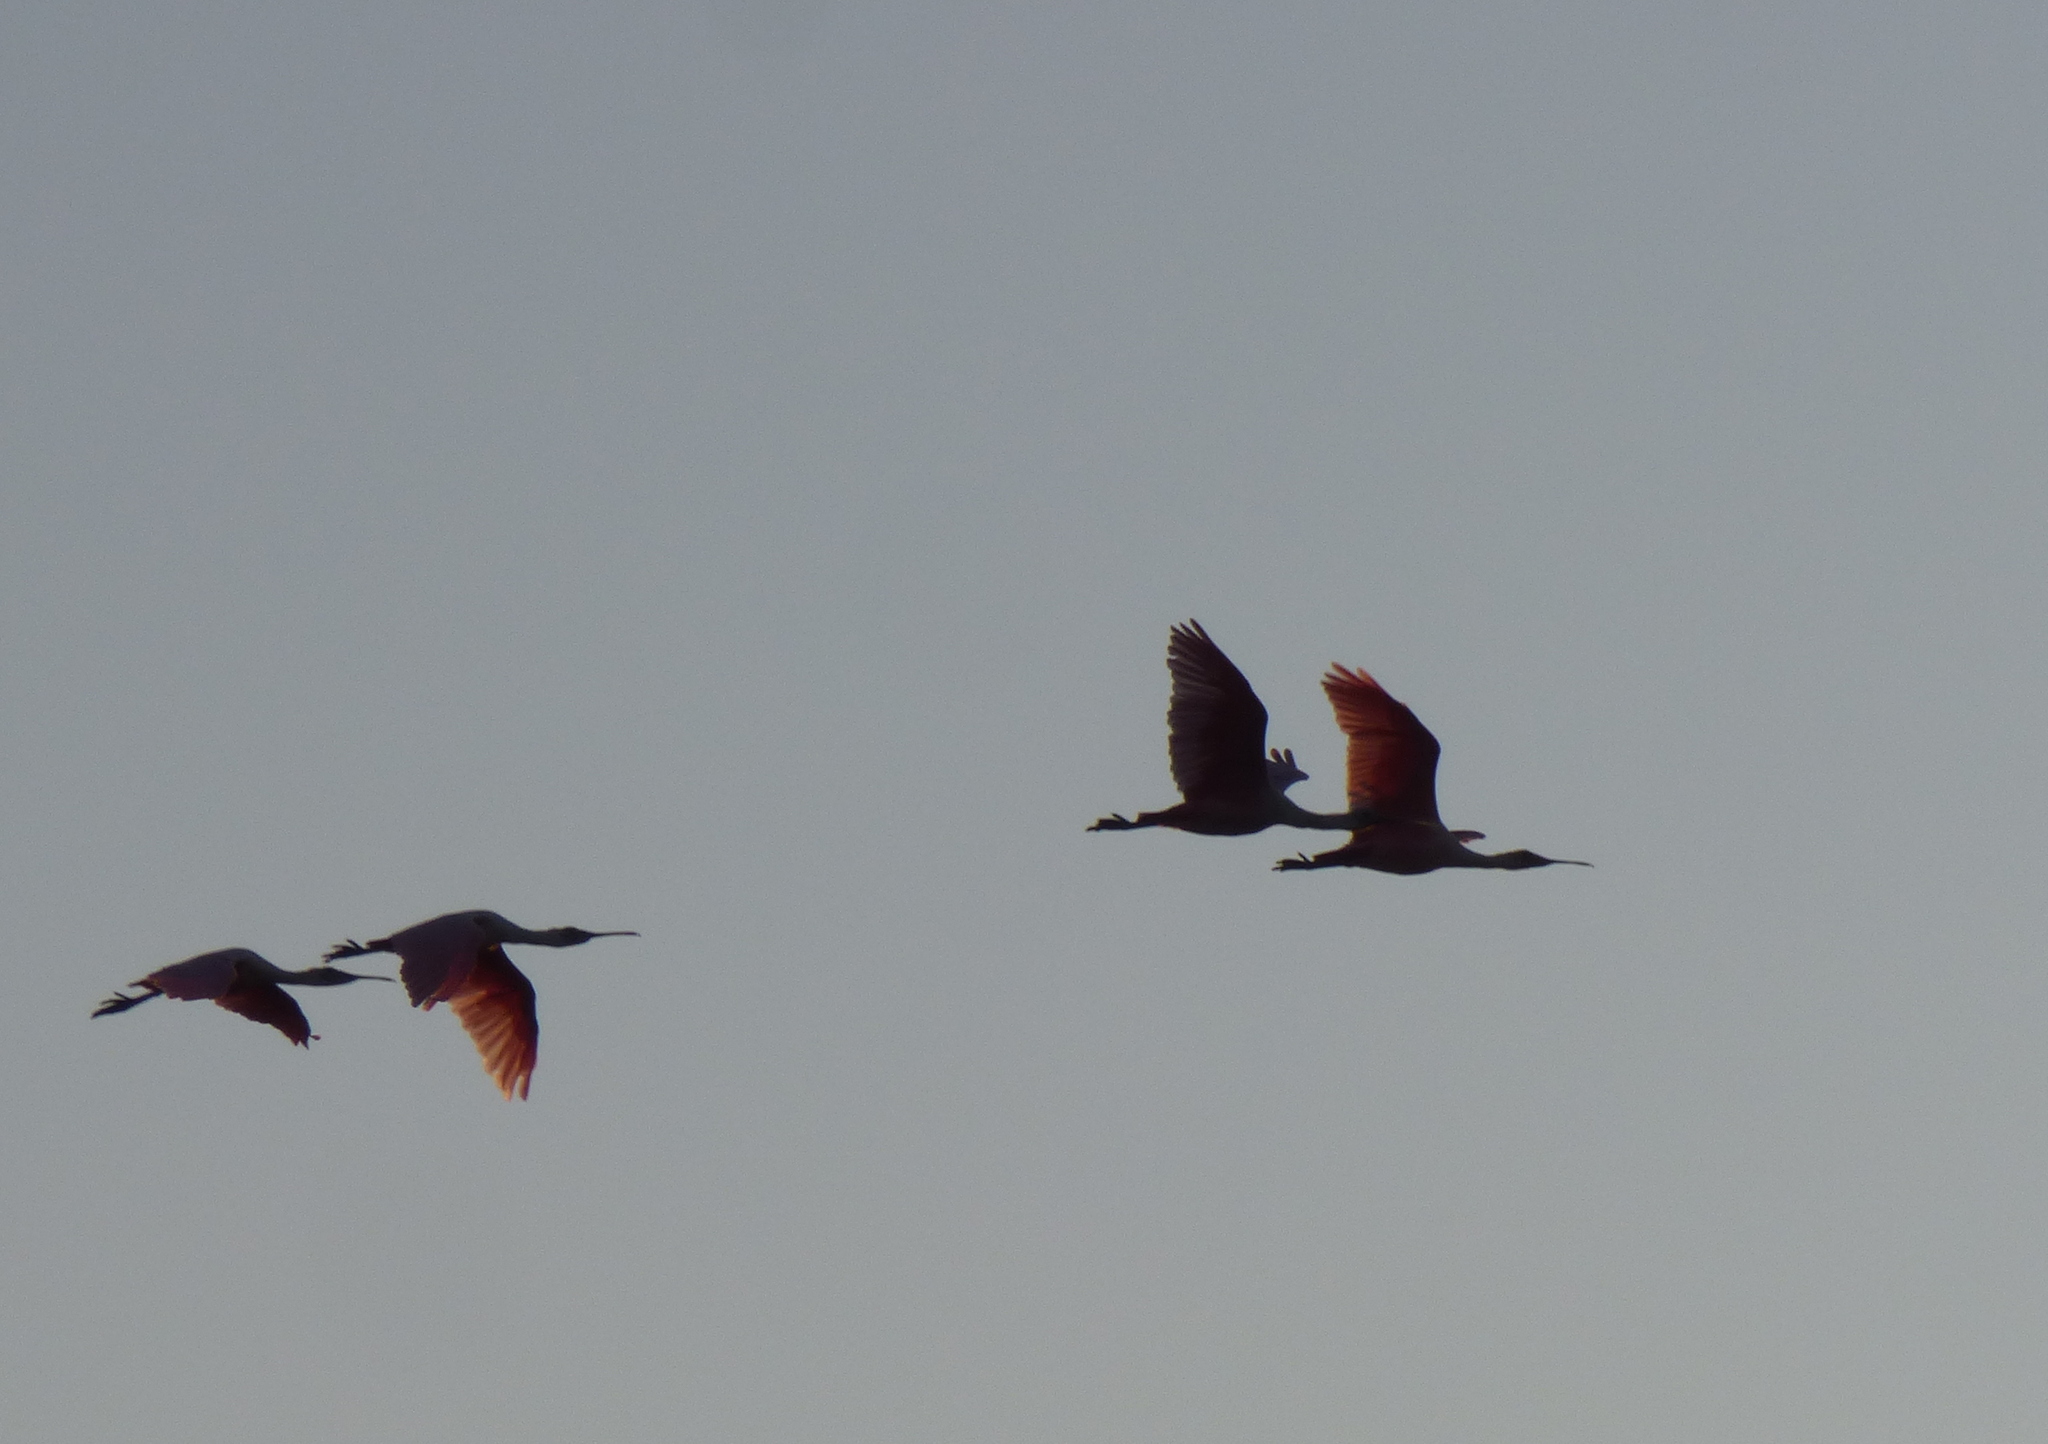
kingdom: Animalia
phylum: Chordata
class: Aves
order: Pelecaniformes
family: Threskiornithidae
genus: Platalea
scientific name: Platalea ajaja
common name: Roseate spoonbill
